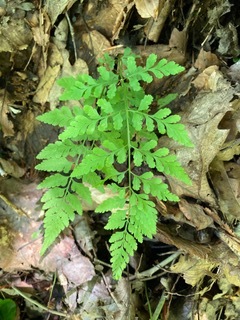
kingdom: Plantae
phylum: Tracheophyta
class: Polypodiopsida
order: Polypodiales
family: Cystopteridaceae
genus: Cystopteris
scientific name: Cystopteris protrusa
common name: Lowland brittle fern
